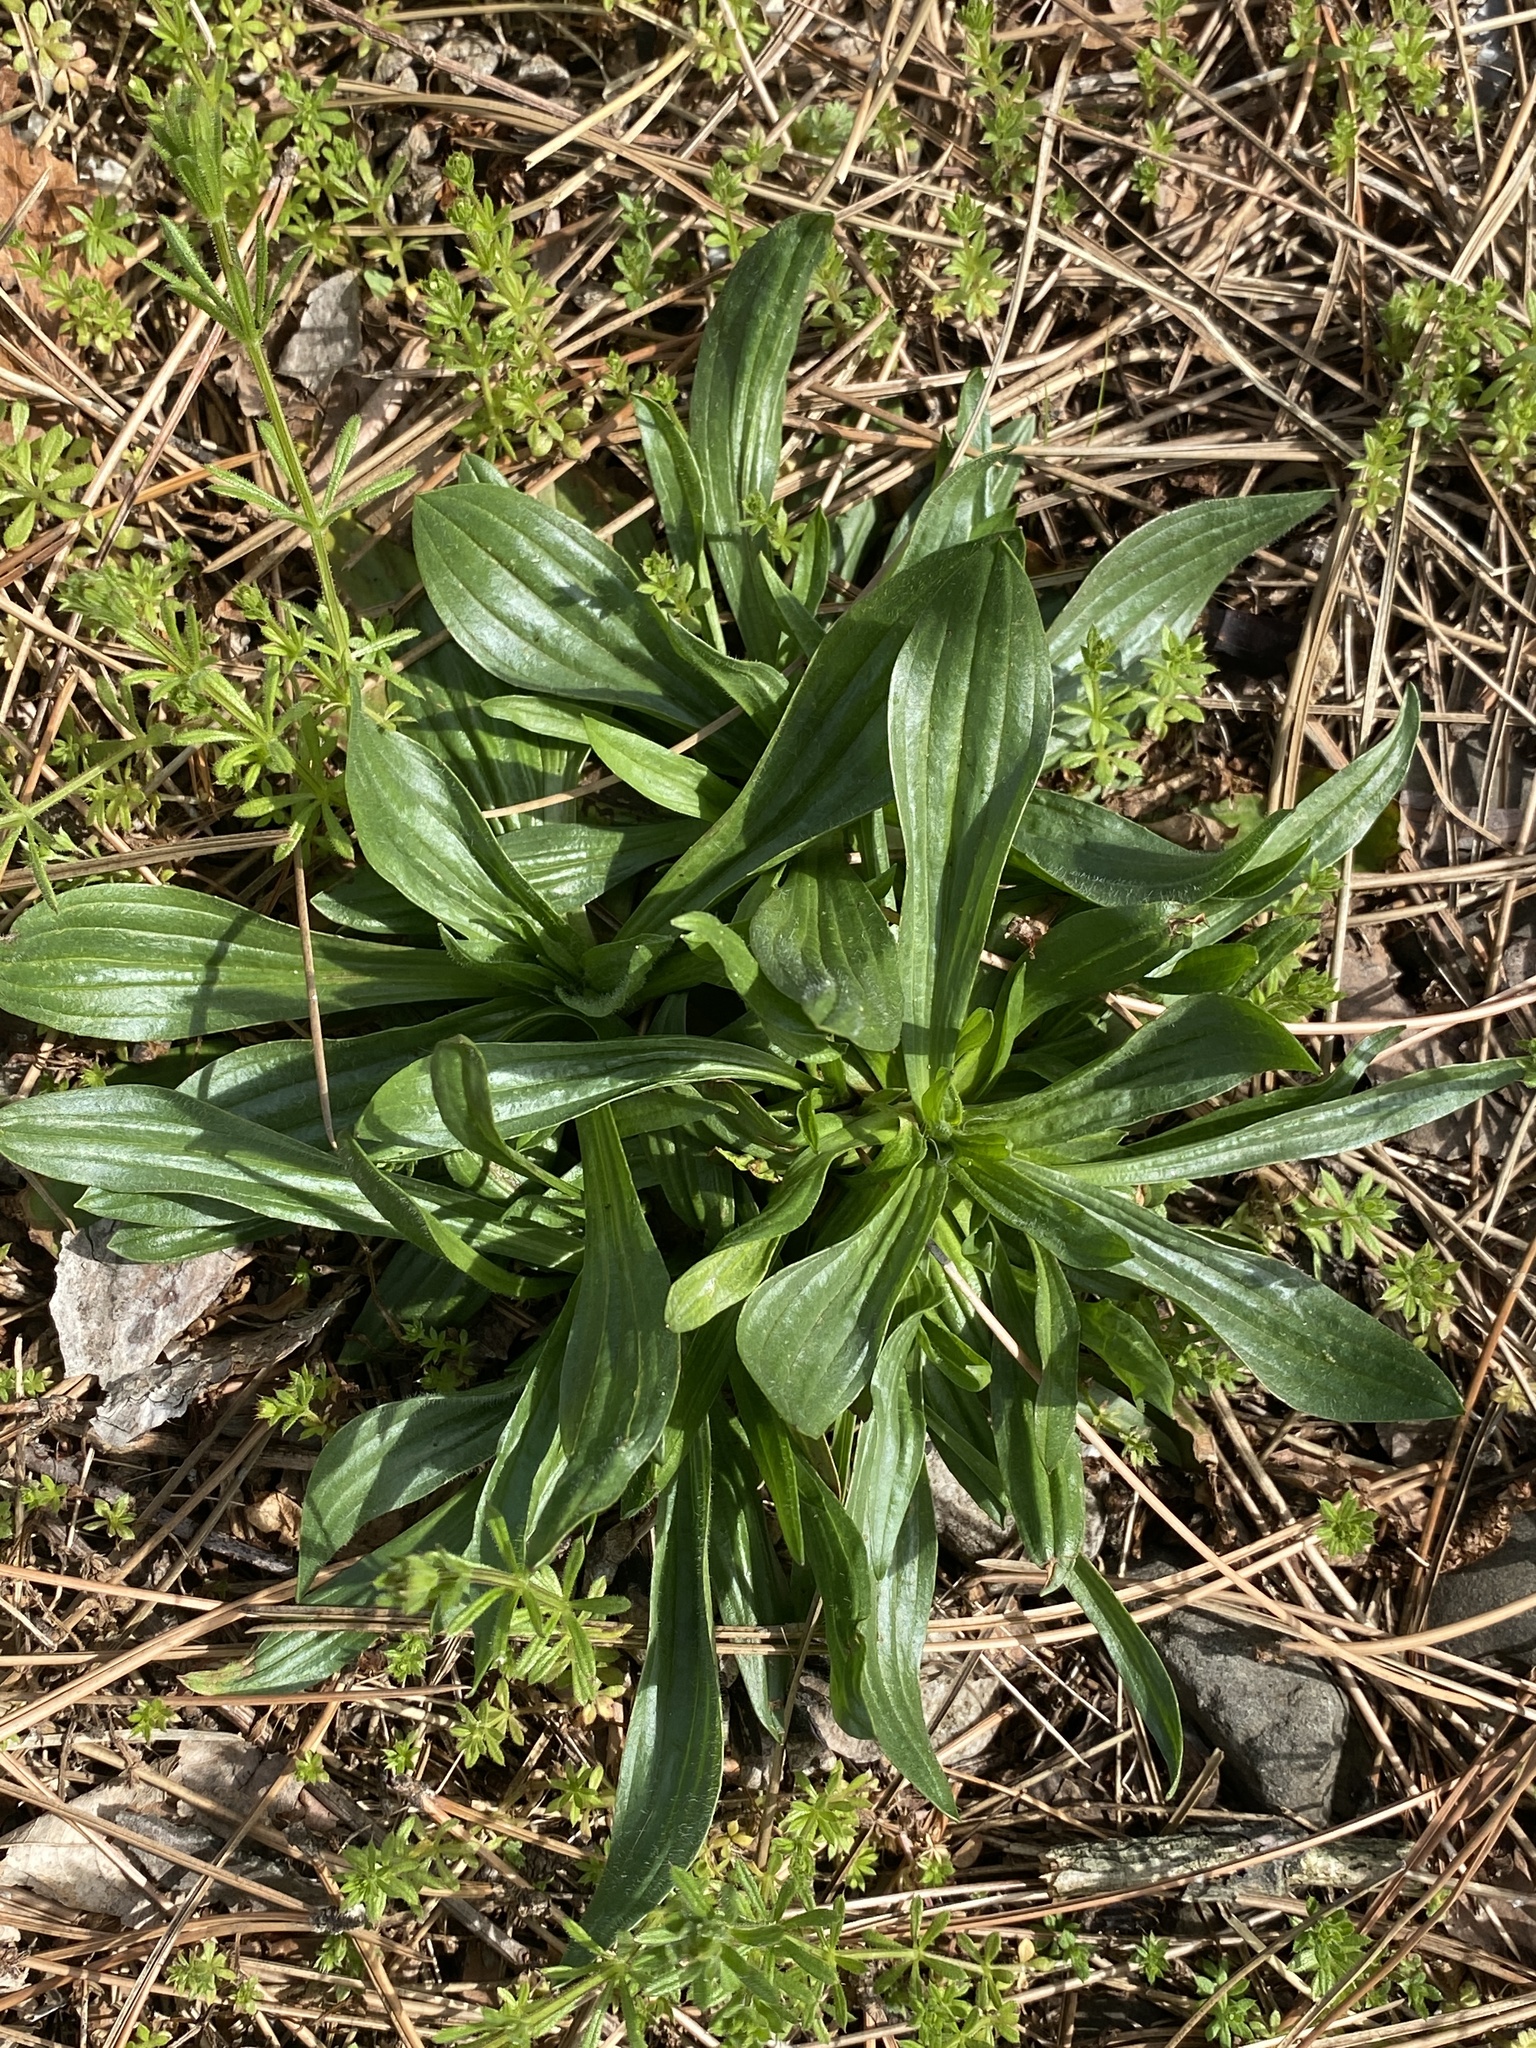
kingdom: Plantae
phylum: Tracheophyta
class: Magnoliopsida
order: Lamiales
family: Plantaginaceae
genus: Plantago
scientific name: Plantago lanceolata
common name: Ribwort plantain
